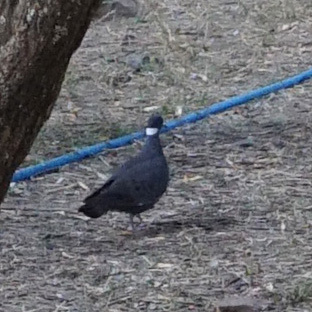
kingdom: Animalia
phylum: Chordata
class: Aves
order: Columbiformes
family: Columbidae
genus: Columba
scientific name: Columba albitorques
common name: White-collared pigeon
